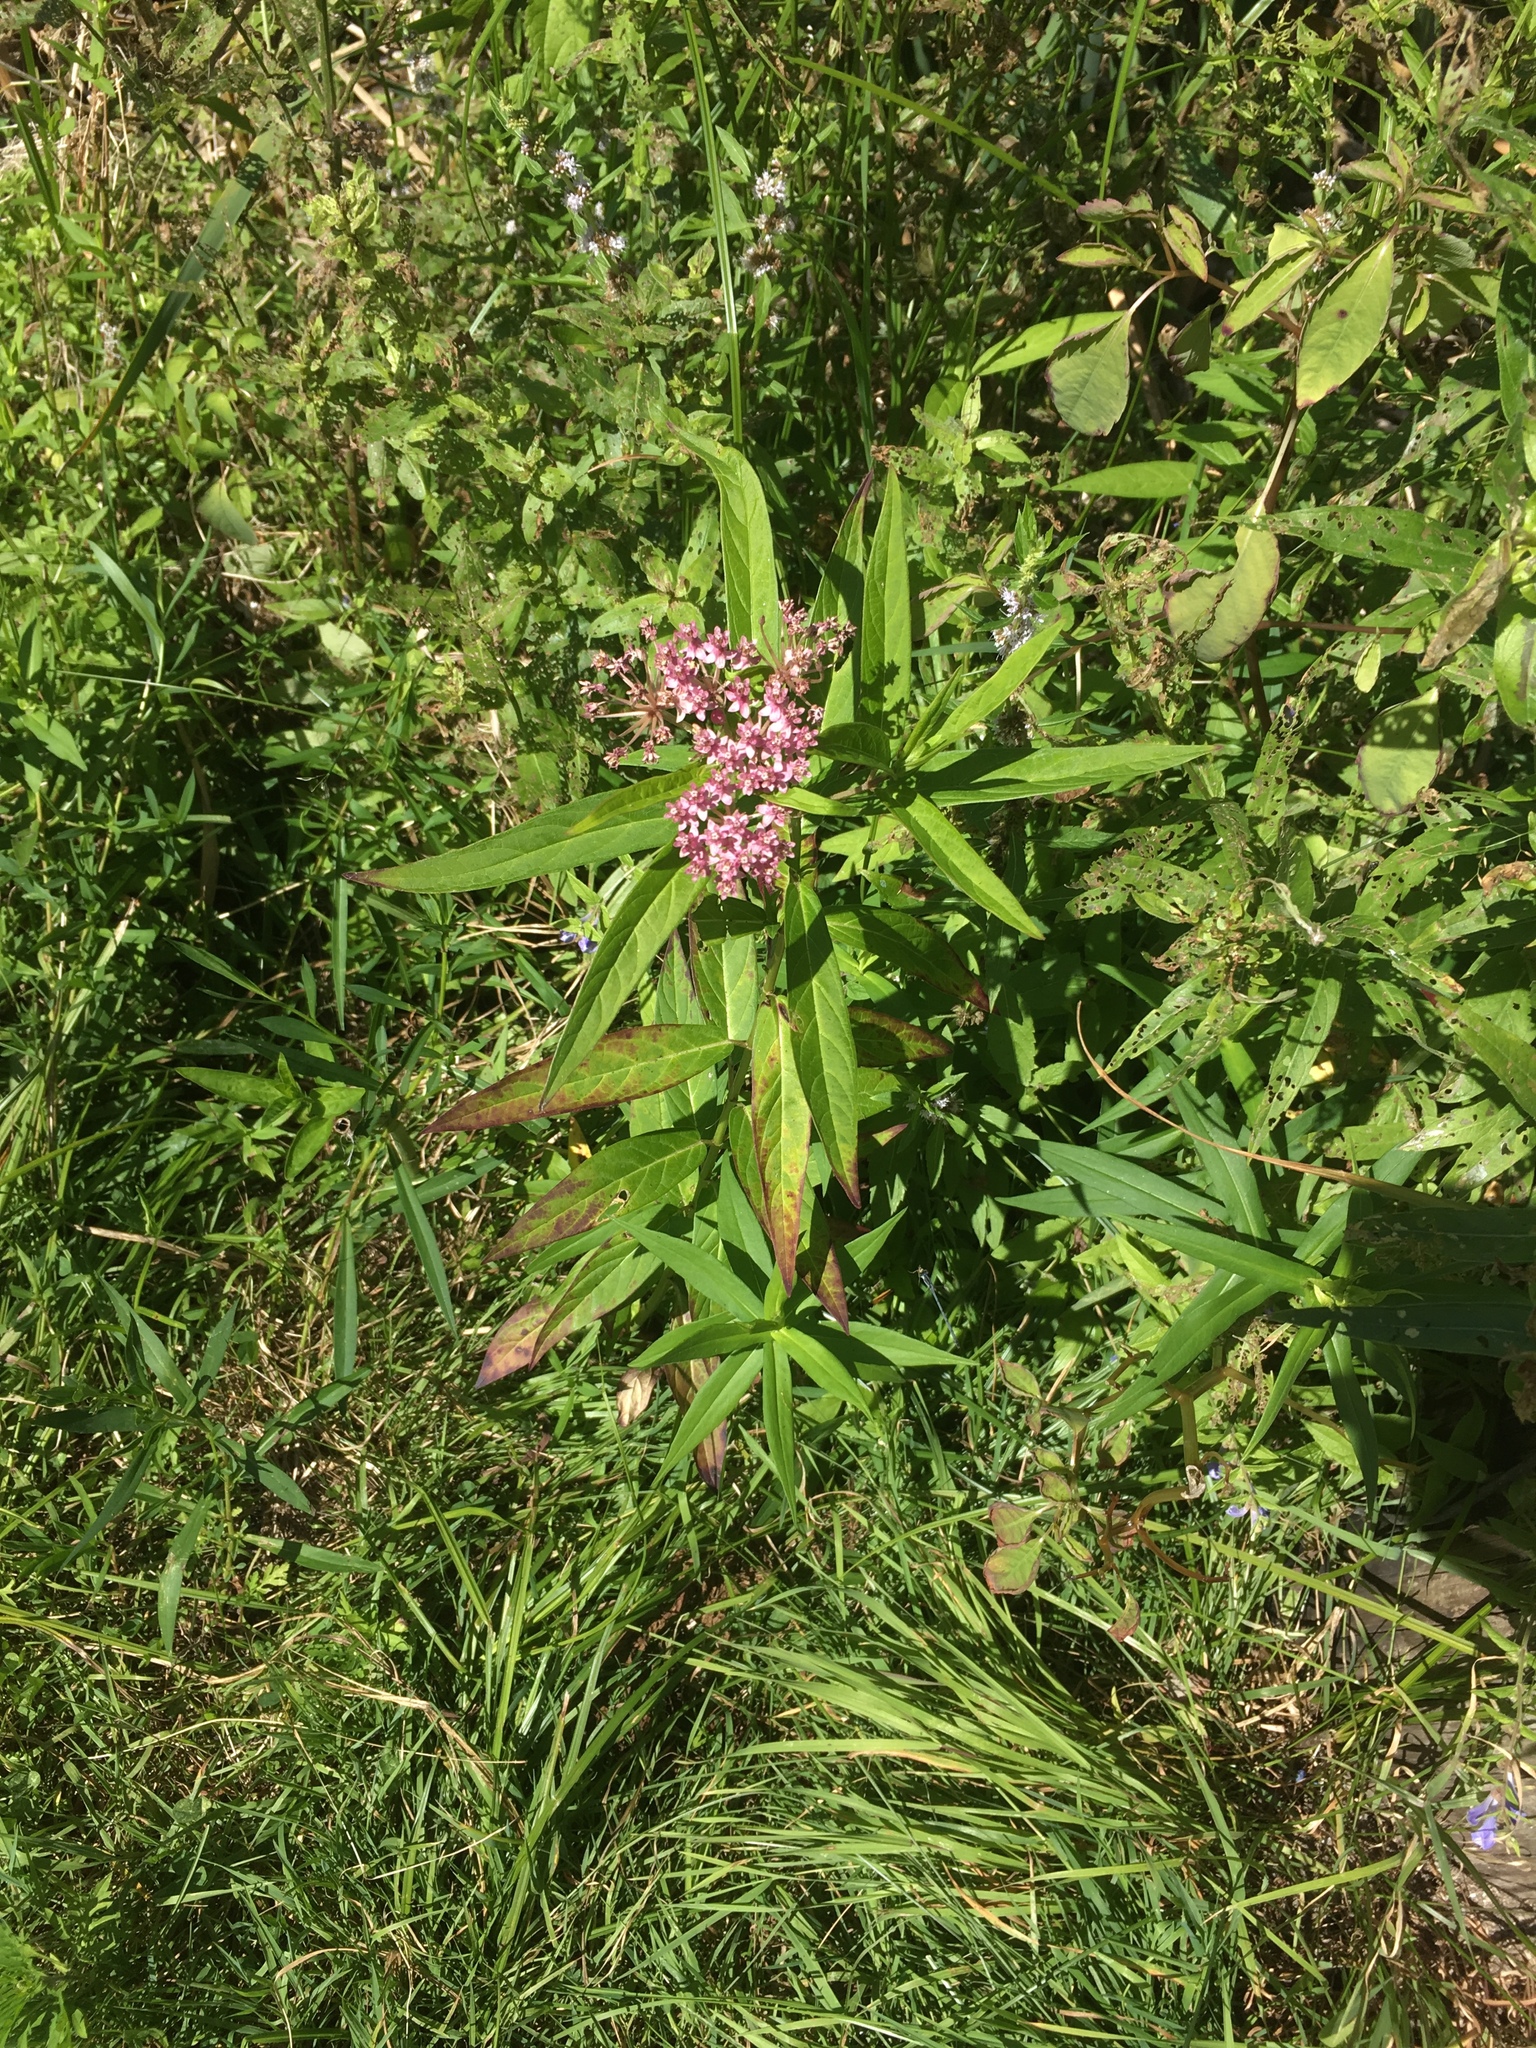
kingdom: Plantae
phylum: Tracheophyta
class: Magnoliopsida
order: Gentianales
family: Apocynaceae
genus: Asclepias
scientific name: Asclepias incarnata
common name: Swamp milkweed
